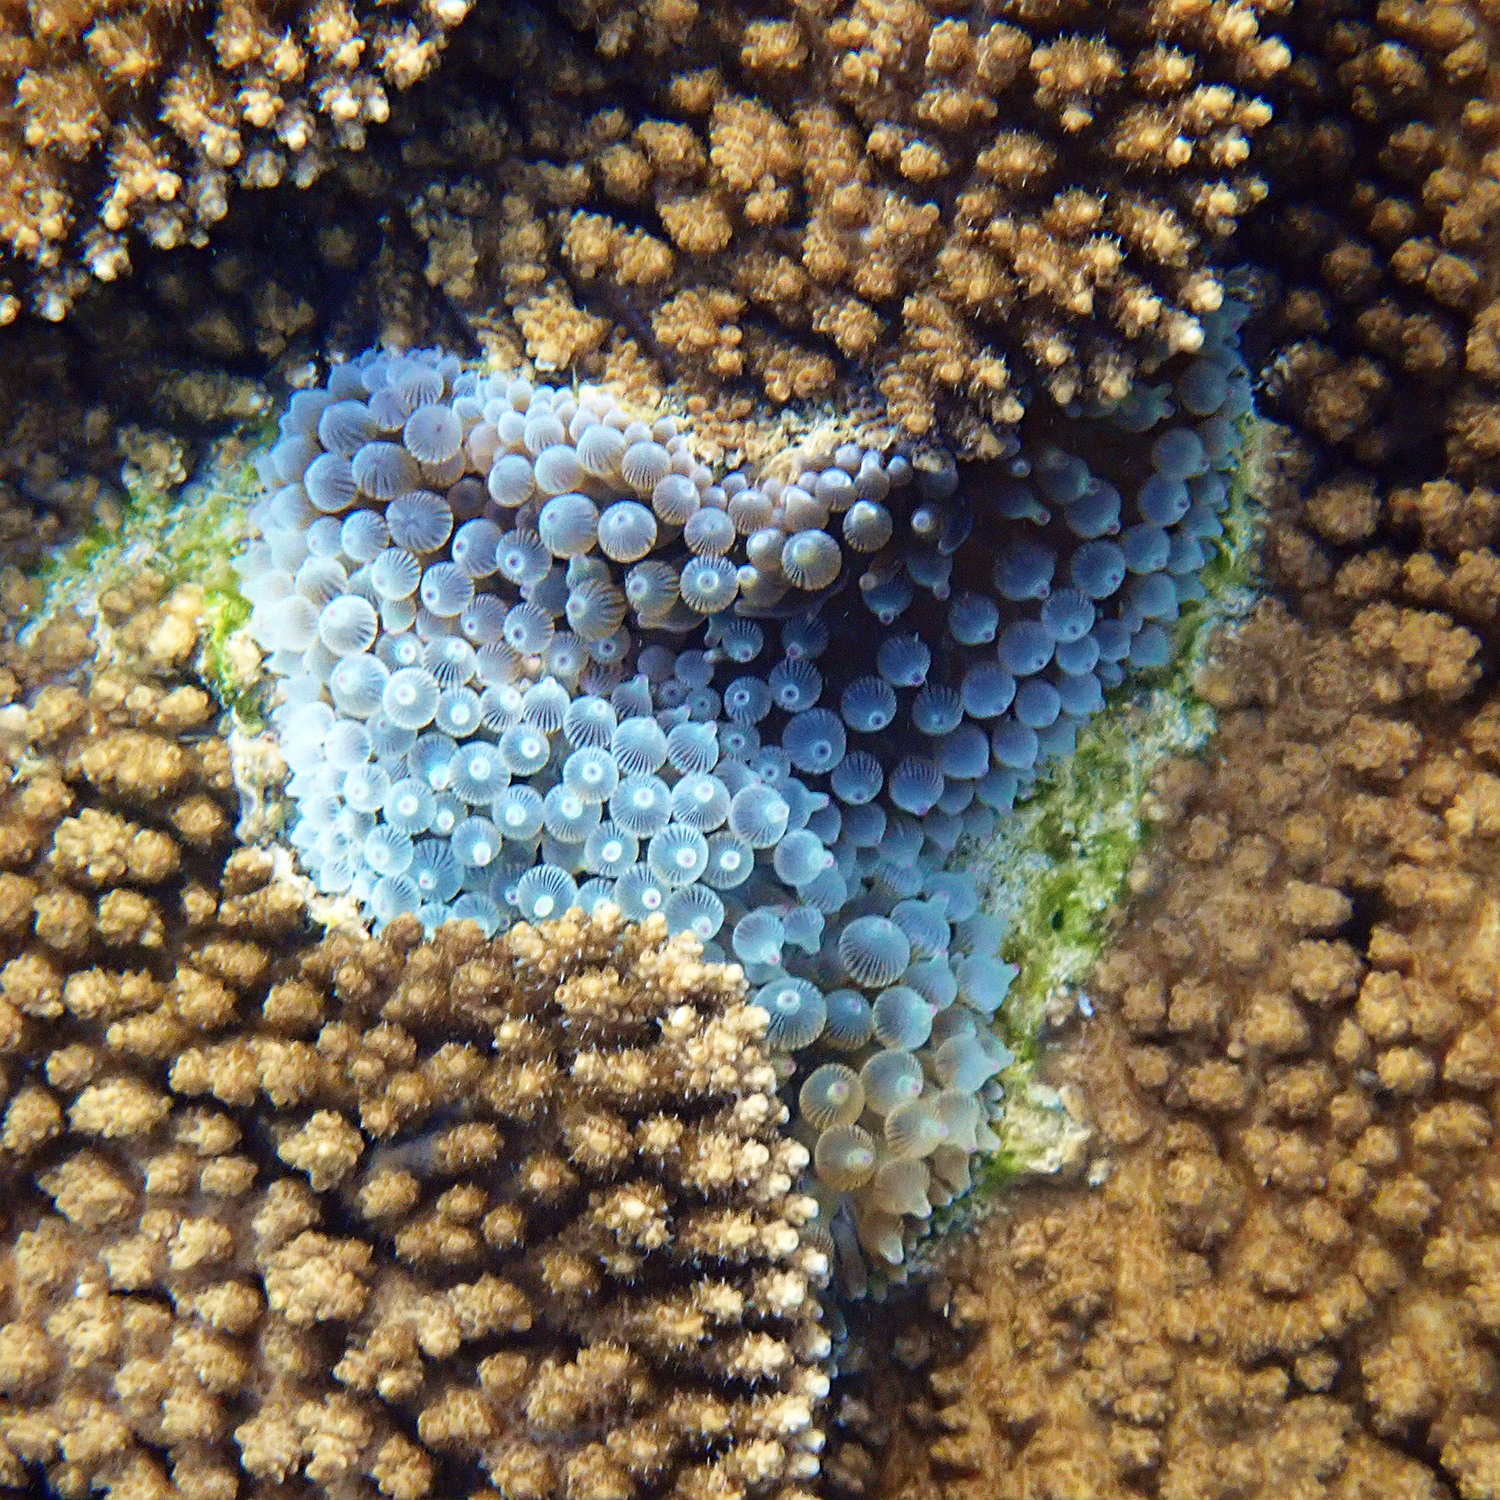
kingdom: Animalia
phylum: Cnidaria
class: Anthozoa
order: Actiniaria
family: Actiniidae
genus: Entacmaea
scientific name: Entacmaea quadricolor
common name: Bulb tentacle sea anemone
